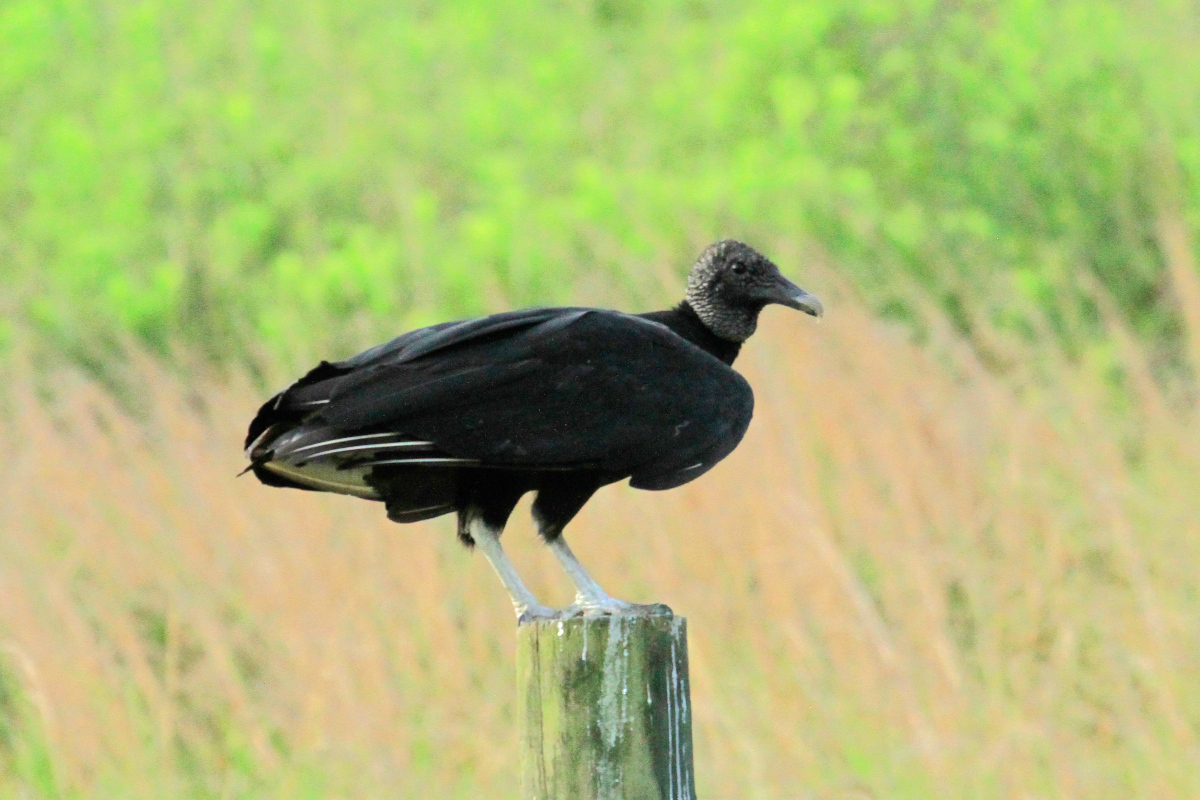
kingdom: Animalia
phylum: Chordata
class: Aves
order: Accipitriformes
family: Cathartidae
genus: Coragyps
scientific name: Coragyps atratus
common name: Black vulture
